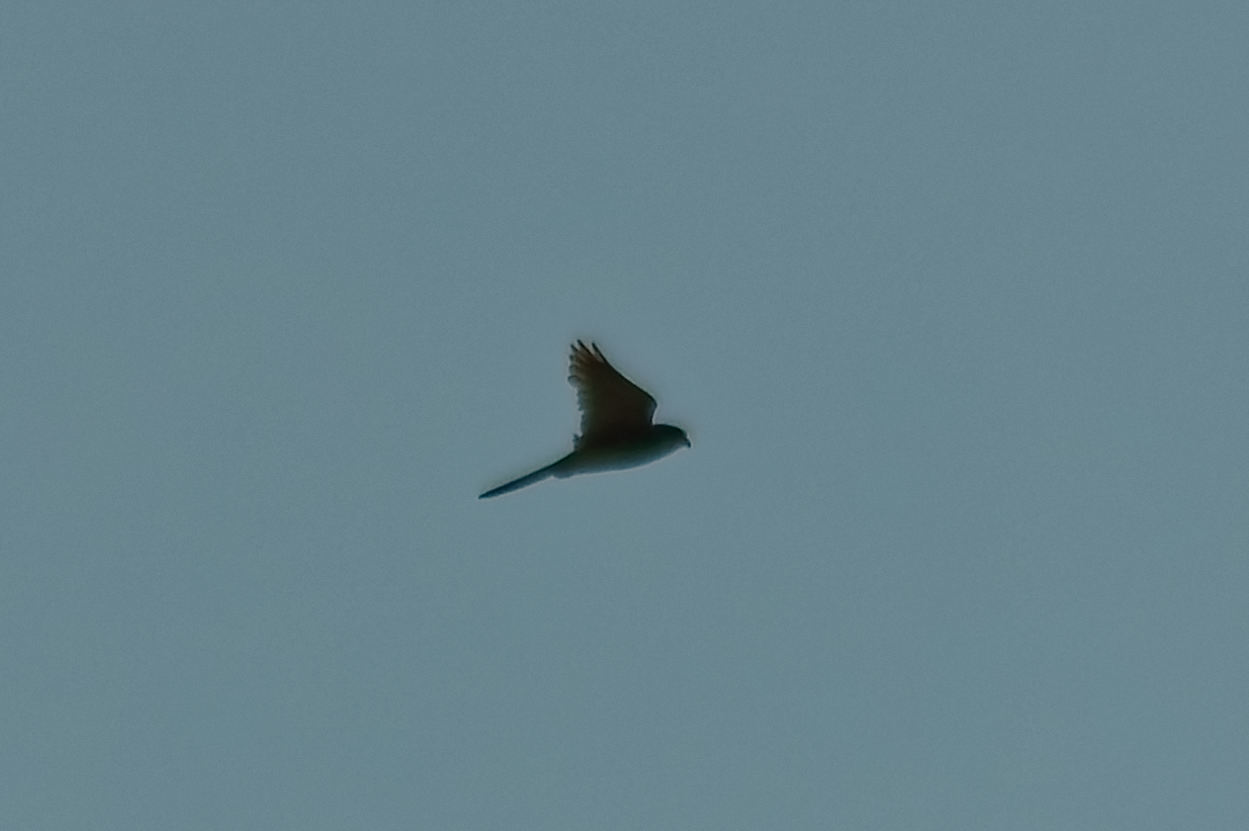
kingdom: Animalia
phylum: Chordata
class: Aves
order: Falconiformes
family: Falconidae
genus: Falco
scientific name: Falco tinnunculus
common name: Common kestrel
